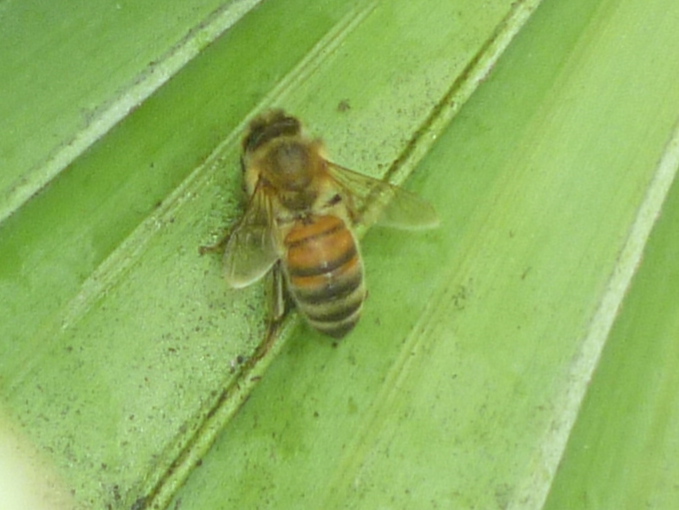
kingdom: Animalia
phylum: Arthropoda
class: Insecta
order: Hymenoptera
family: Apidae
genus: Apis
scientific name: Apis mellifera
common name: Honey bee
